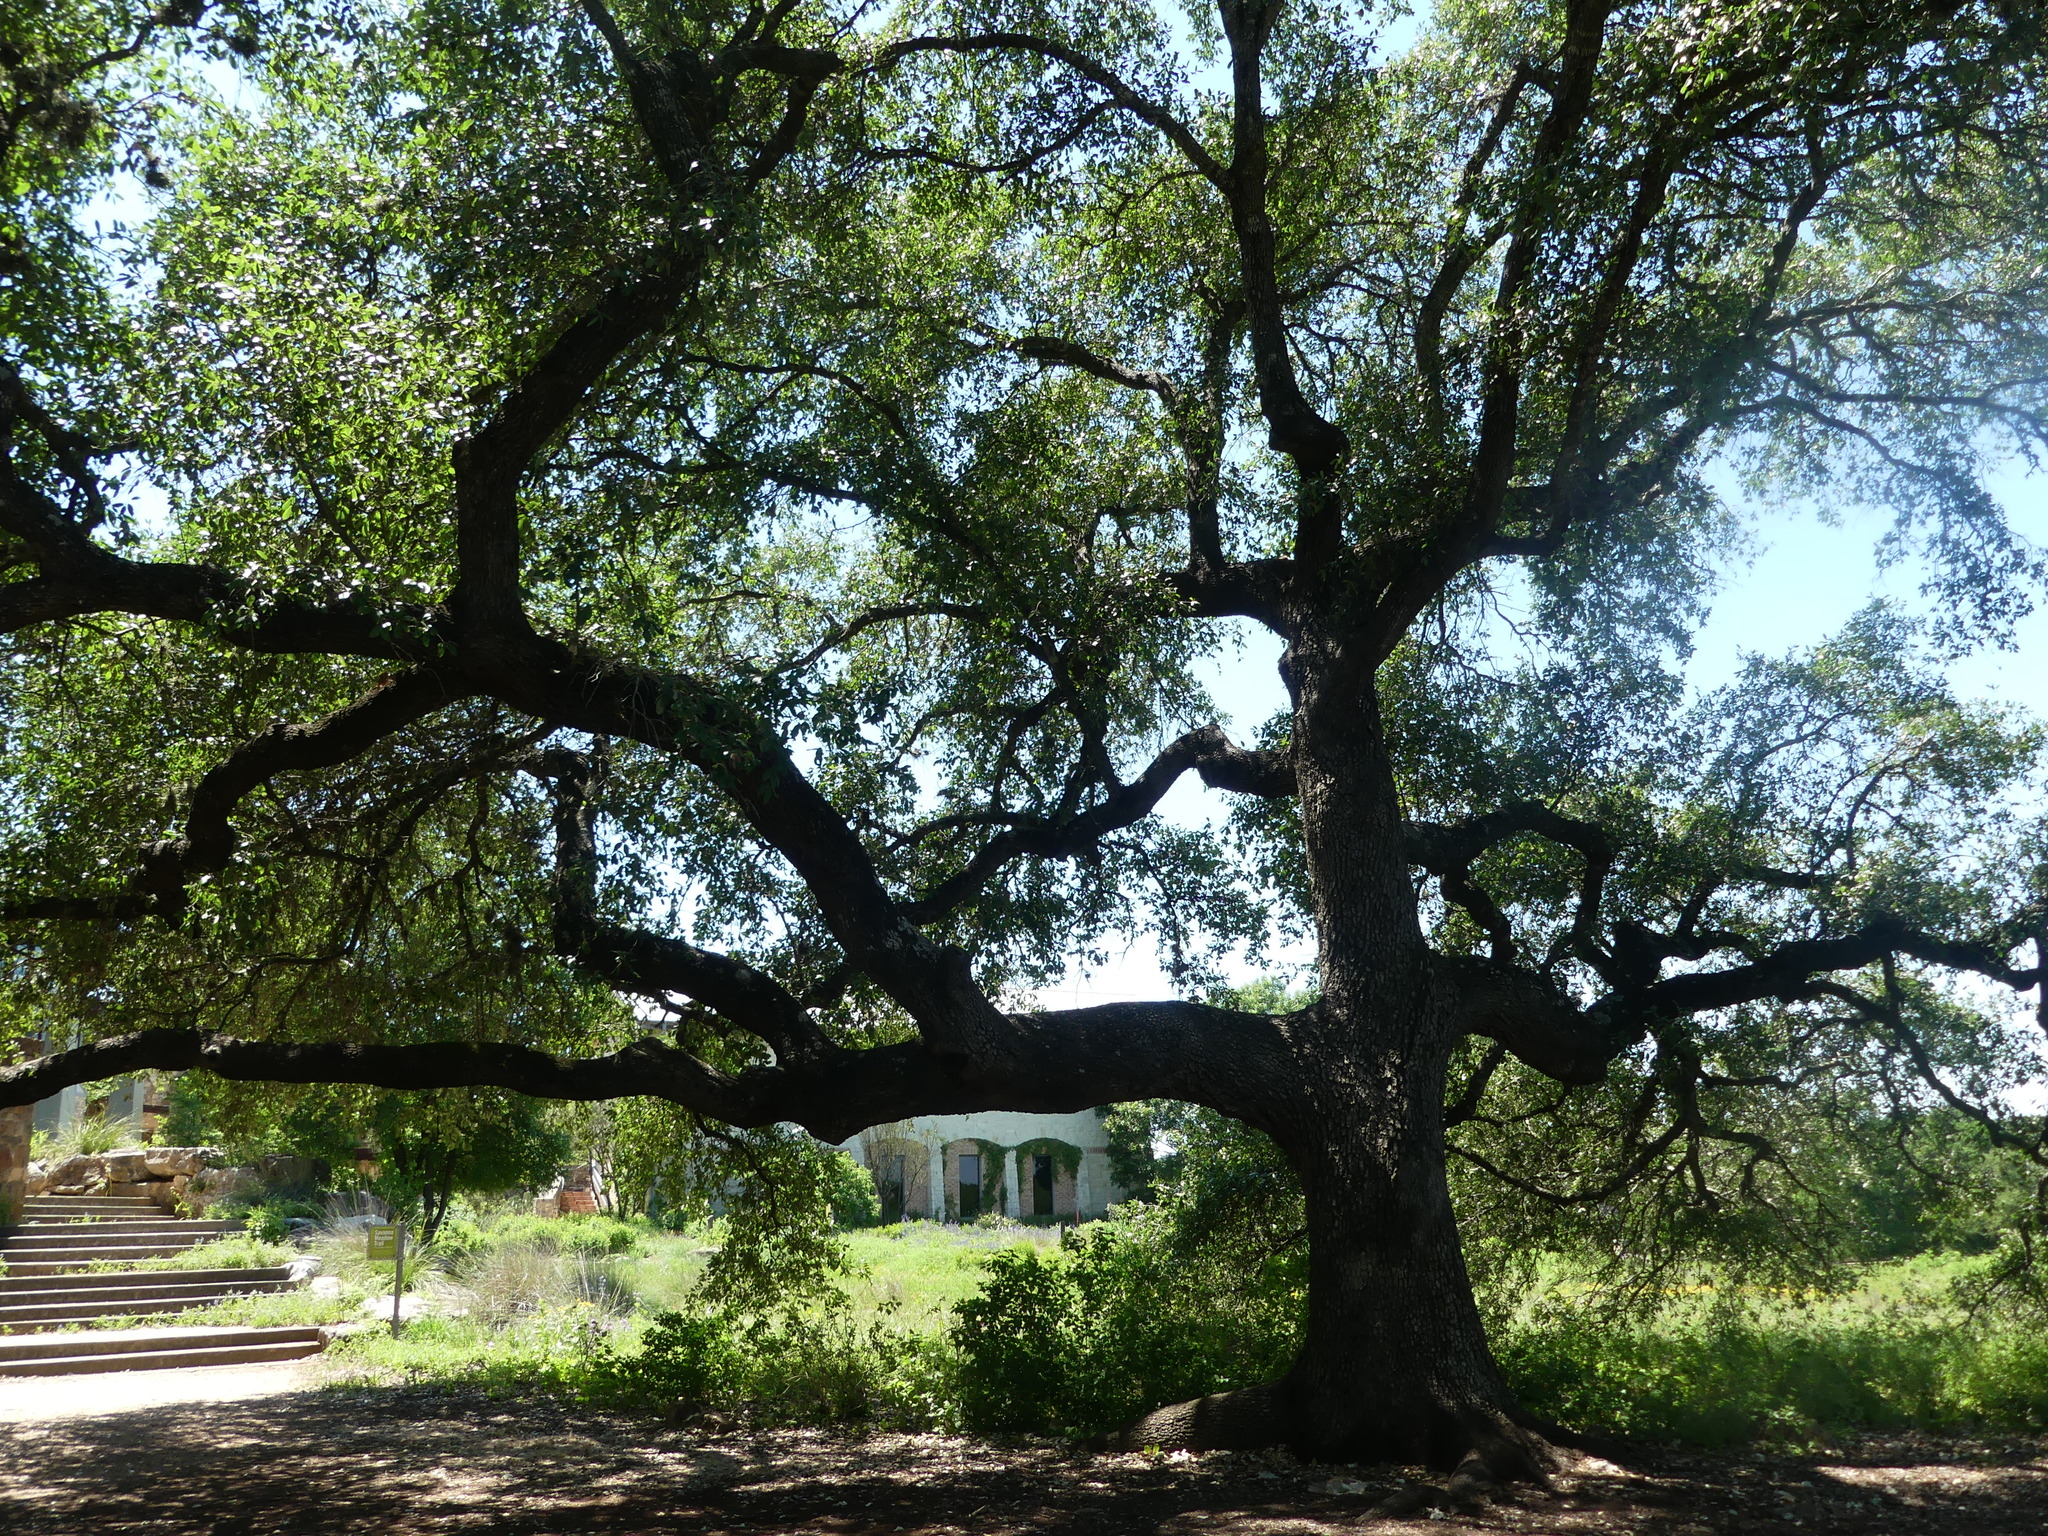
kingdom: Plantae
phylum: Tracheophyta
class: Magnoliopsida
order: Fagales
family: Fagaceae
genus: Quercus
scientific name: Quercus fusiformis
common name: Texas live oak
